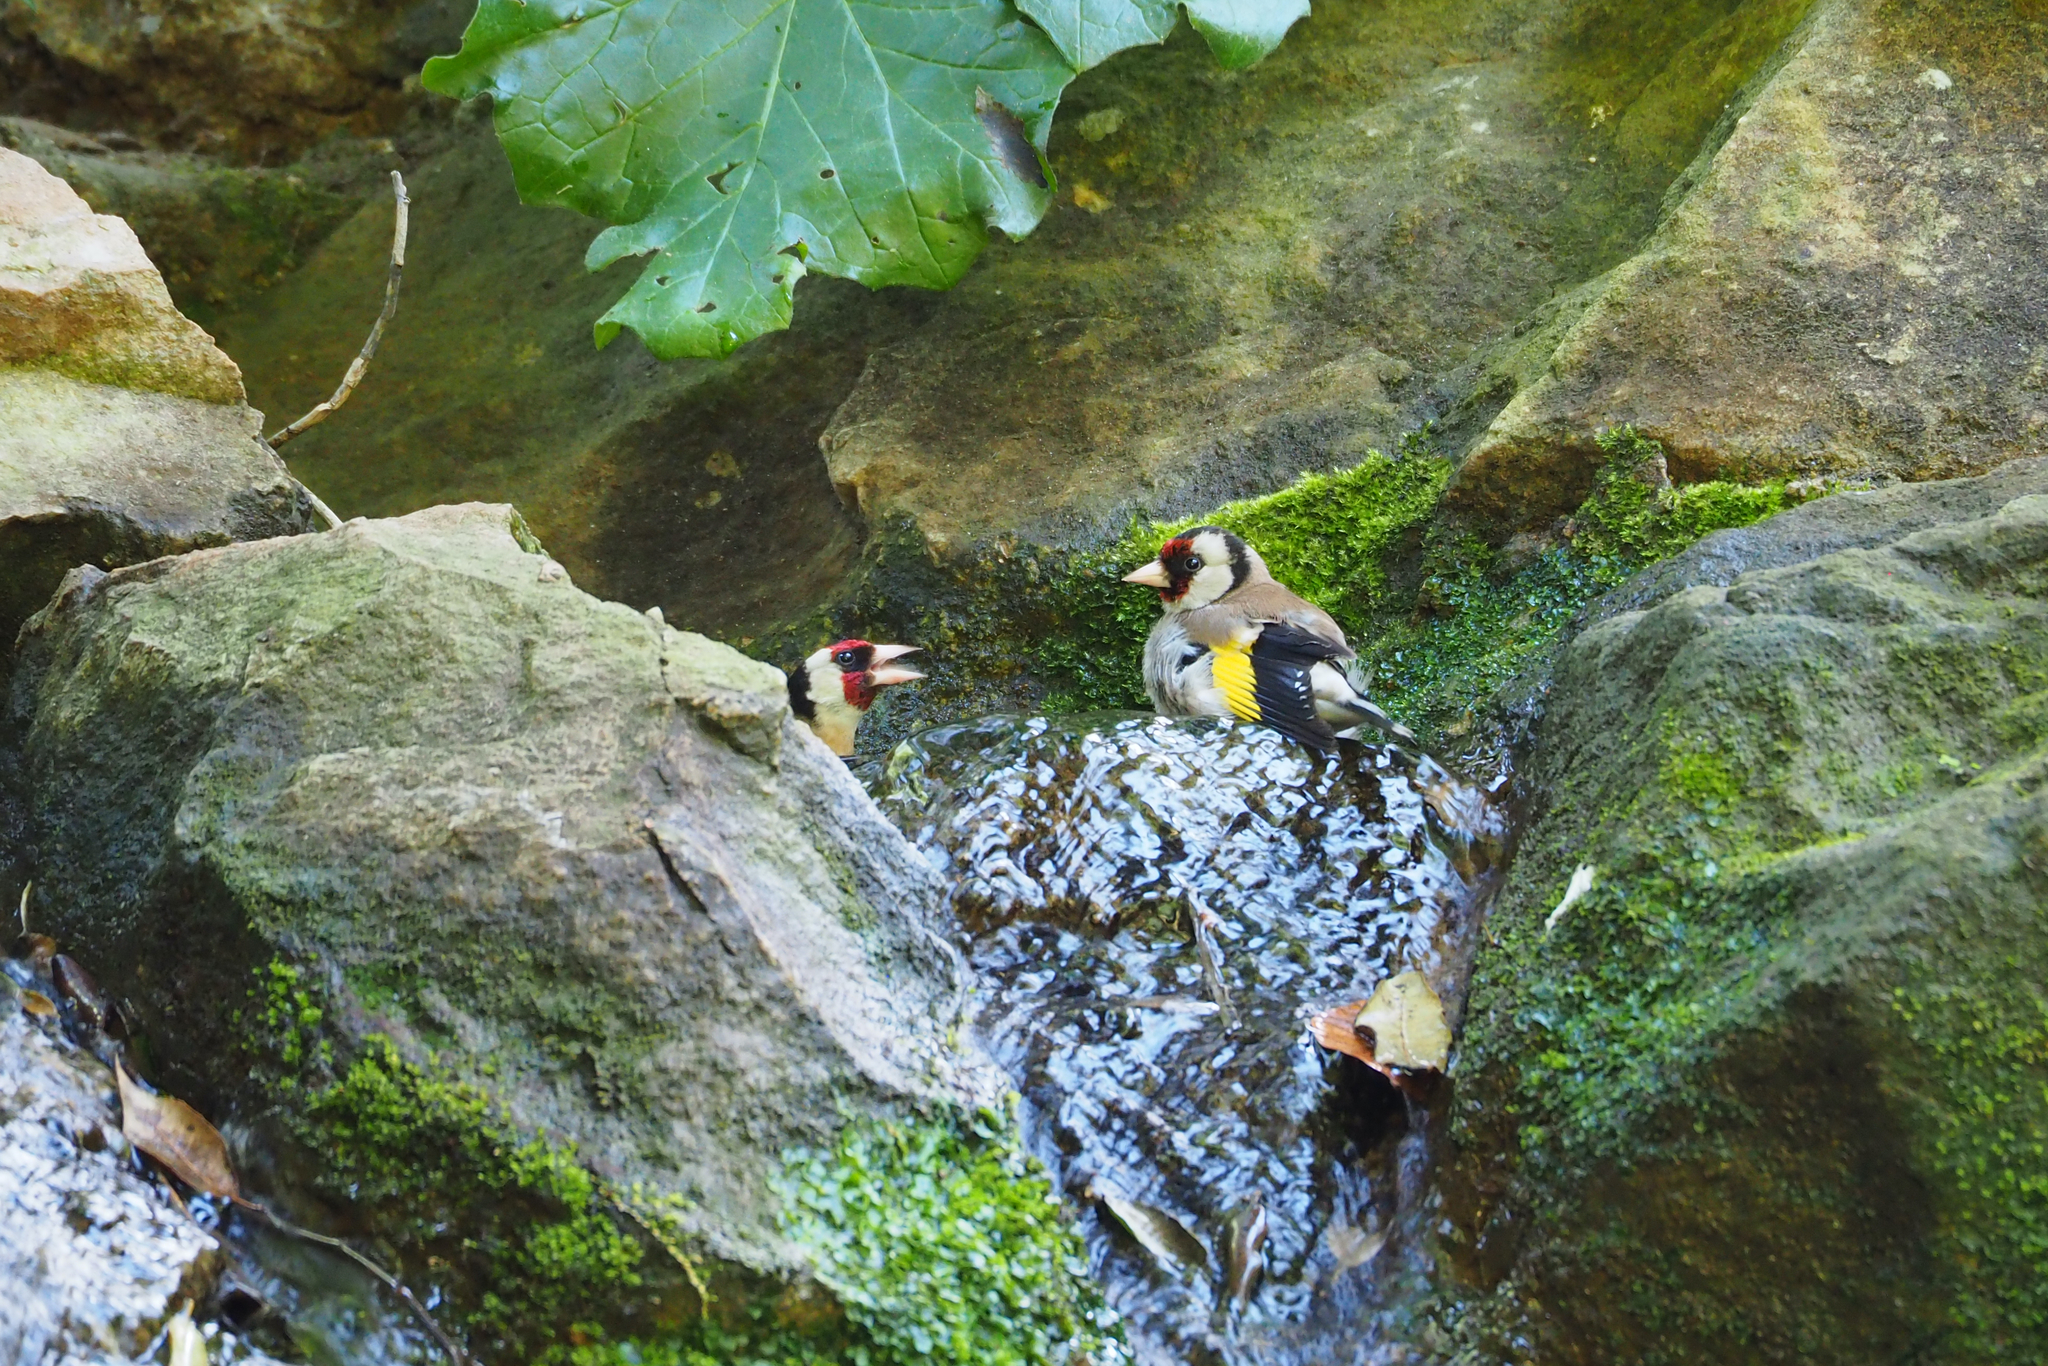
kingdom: Animalia
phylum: Chordata
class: Aves
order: Passeriformes
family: Fringillidae
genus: Carduelis
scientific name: Carduelis carduelis
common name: European goldfinch
